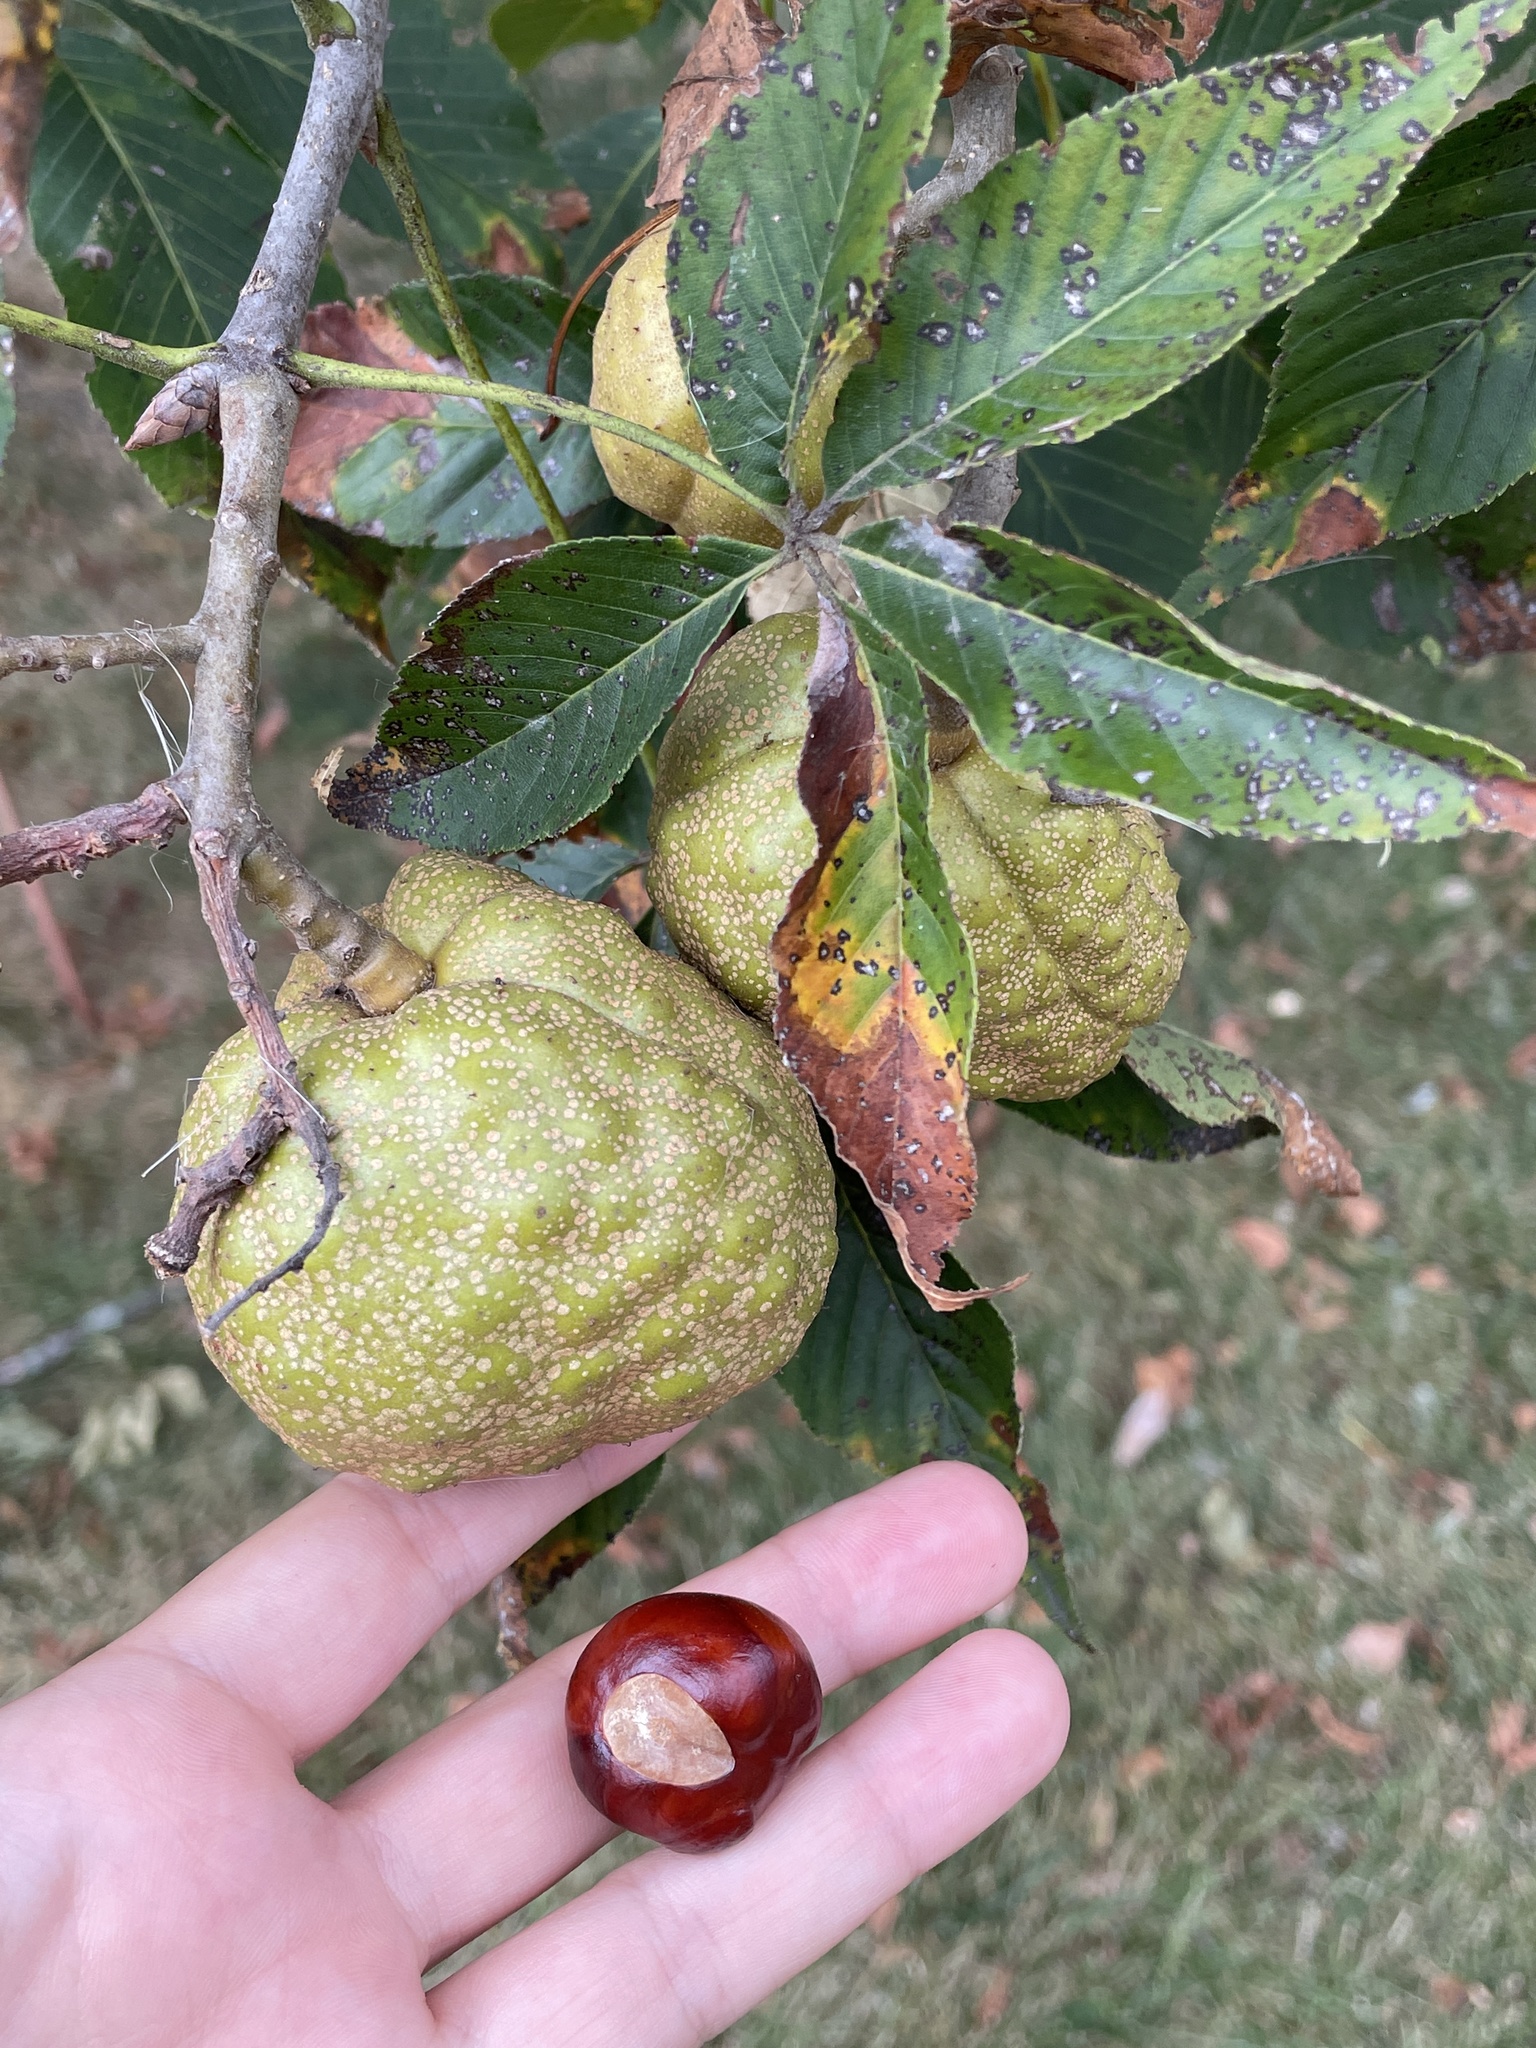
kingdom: Plantae
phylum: Tracheophyta
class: Magnoliopsida
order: Sapindales
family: Sapindaceae
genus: Aesculus
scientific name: Aesculus glabra
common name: Ohio buckeye
